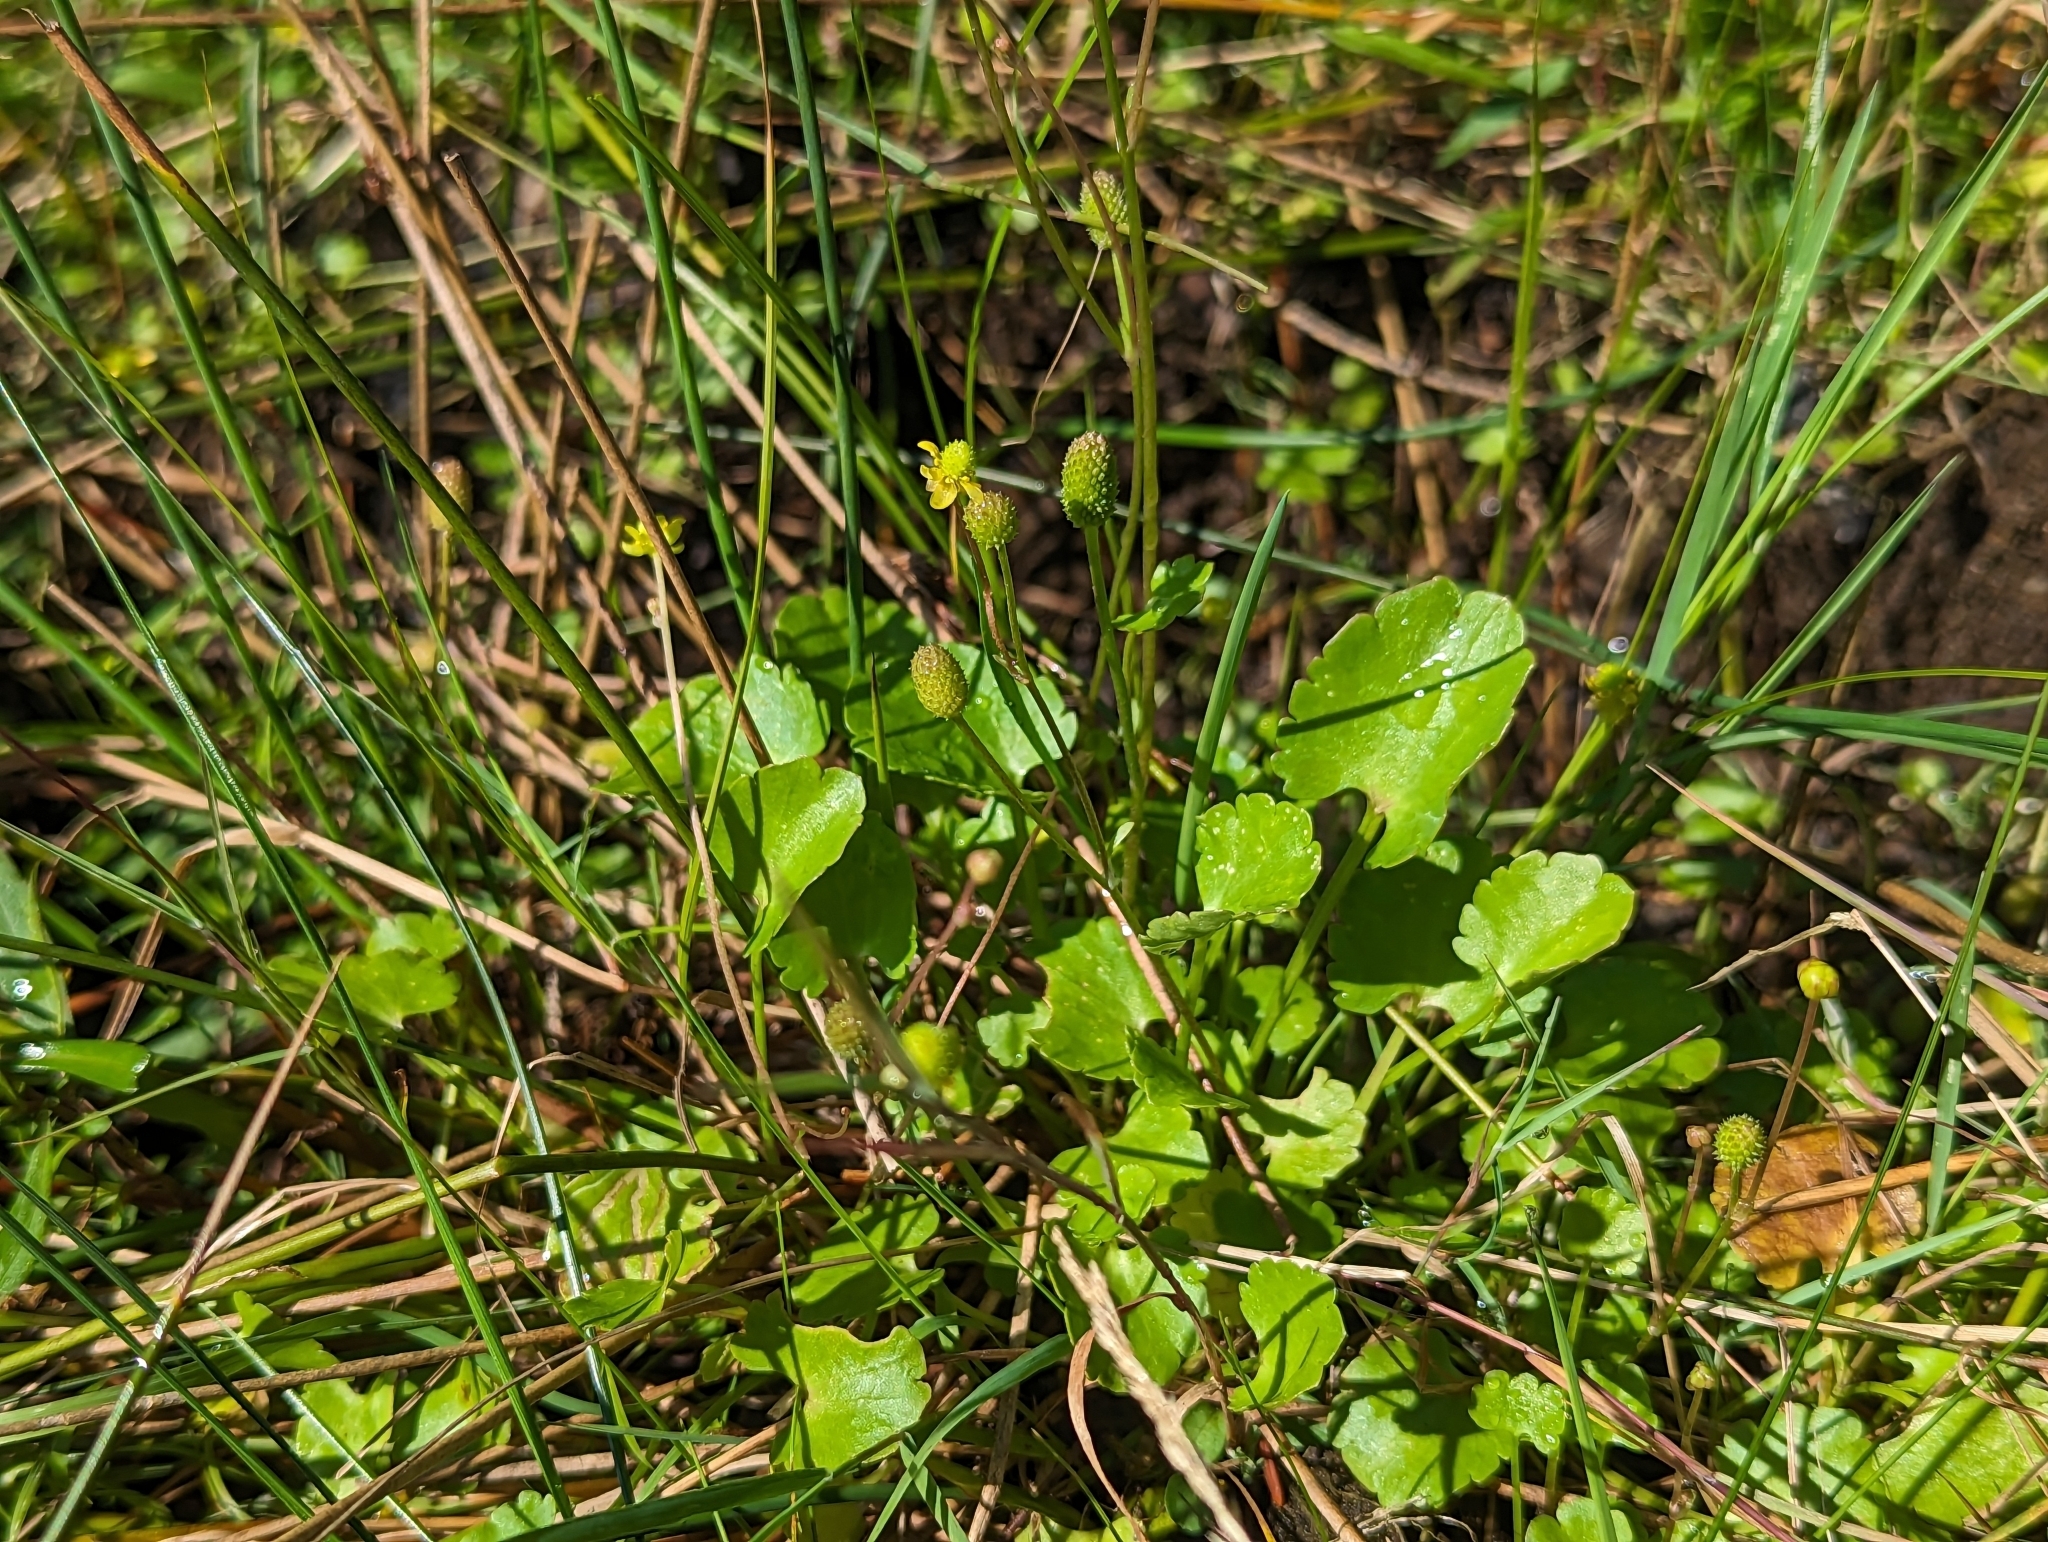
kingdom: Plantae
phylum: Tracheophyta
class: Magnoliopsida
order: Ranunculales
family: Ranunculaceae
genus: Halerpestes
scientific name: Halerpestes cymbalaria
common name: Seaside crowfoot
